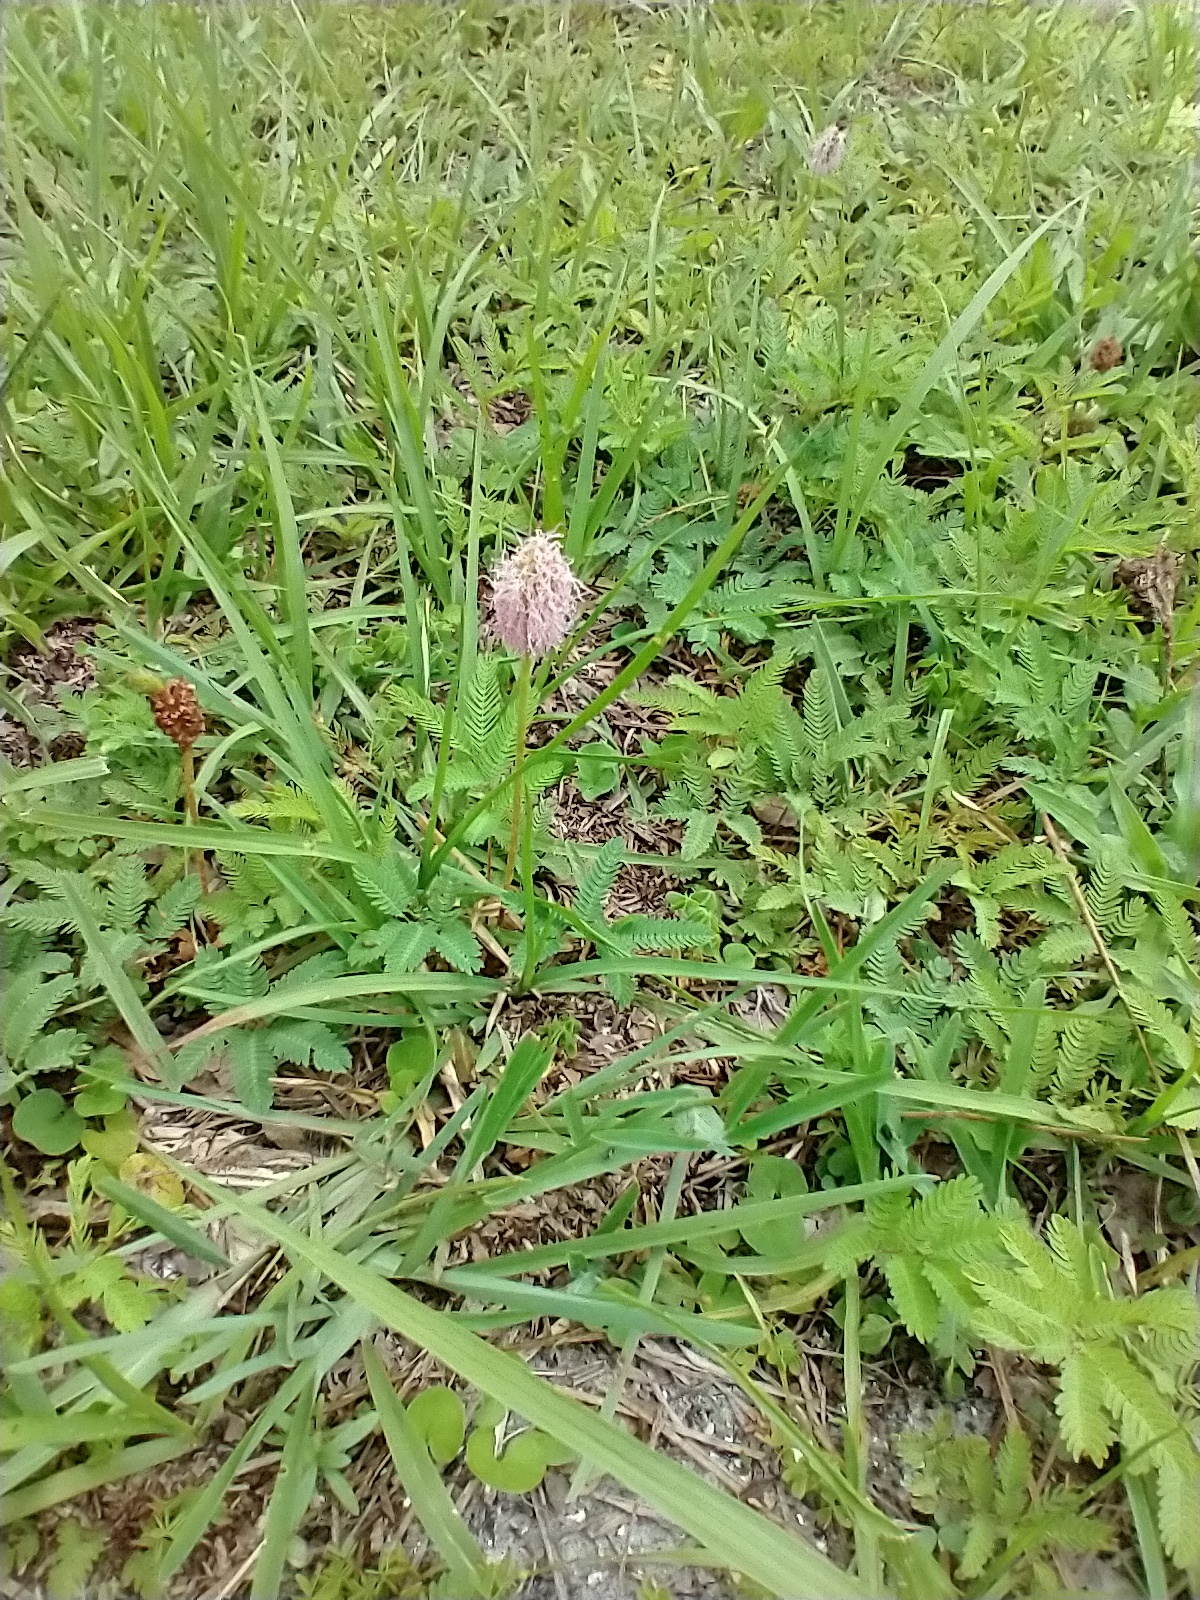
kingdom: Plantae
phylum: Tracheophyta
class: Magnoliopsida
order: Fabales
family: Fabaceae
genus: Mimosa
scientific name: Mimosa strigillosa
